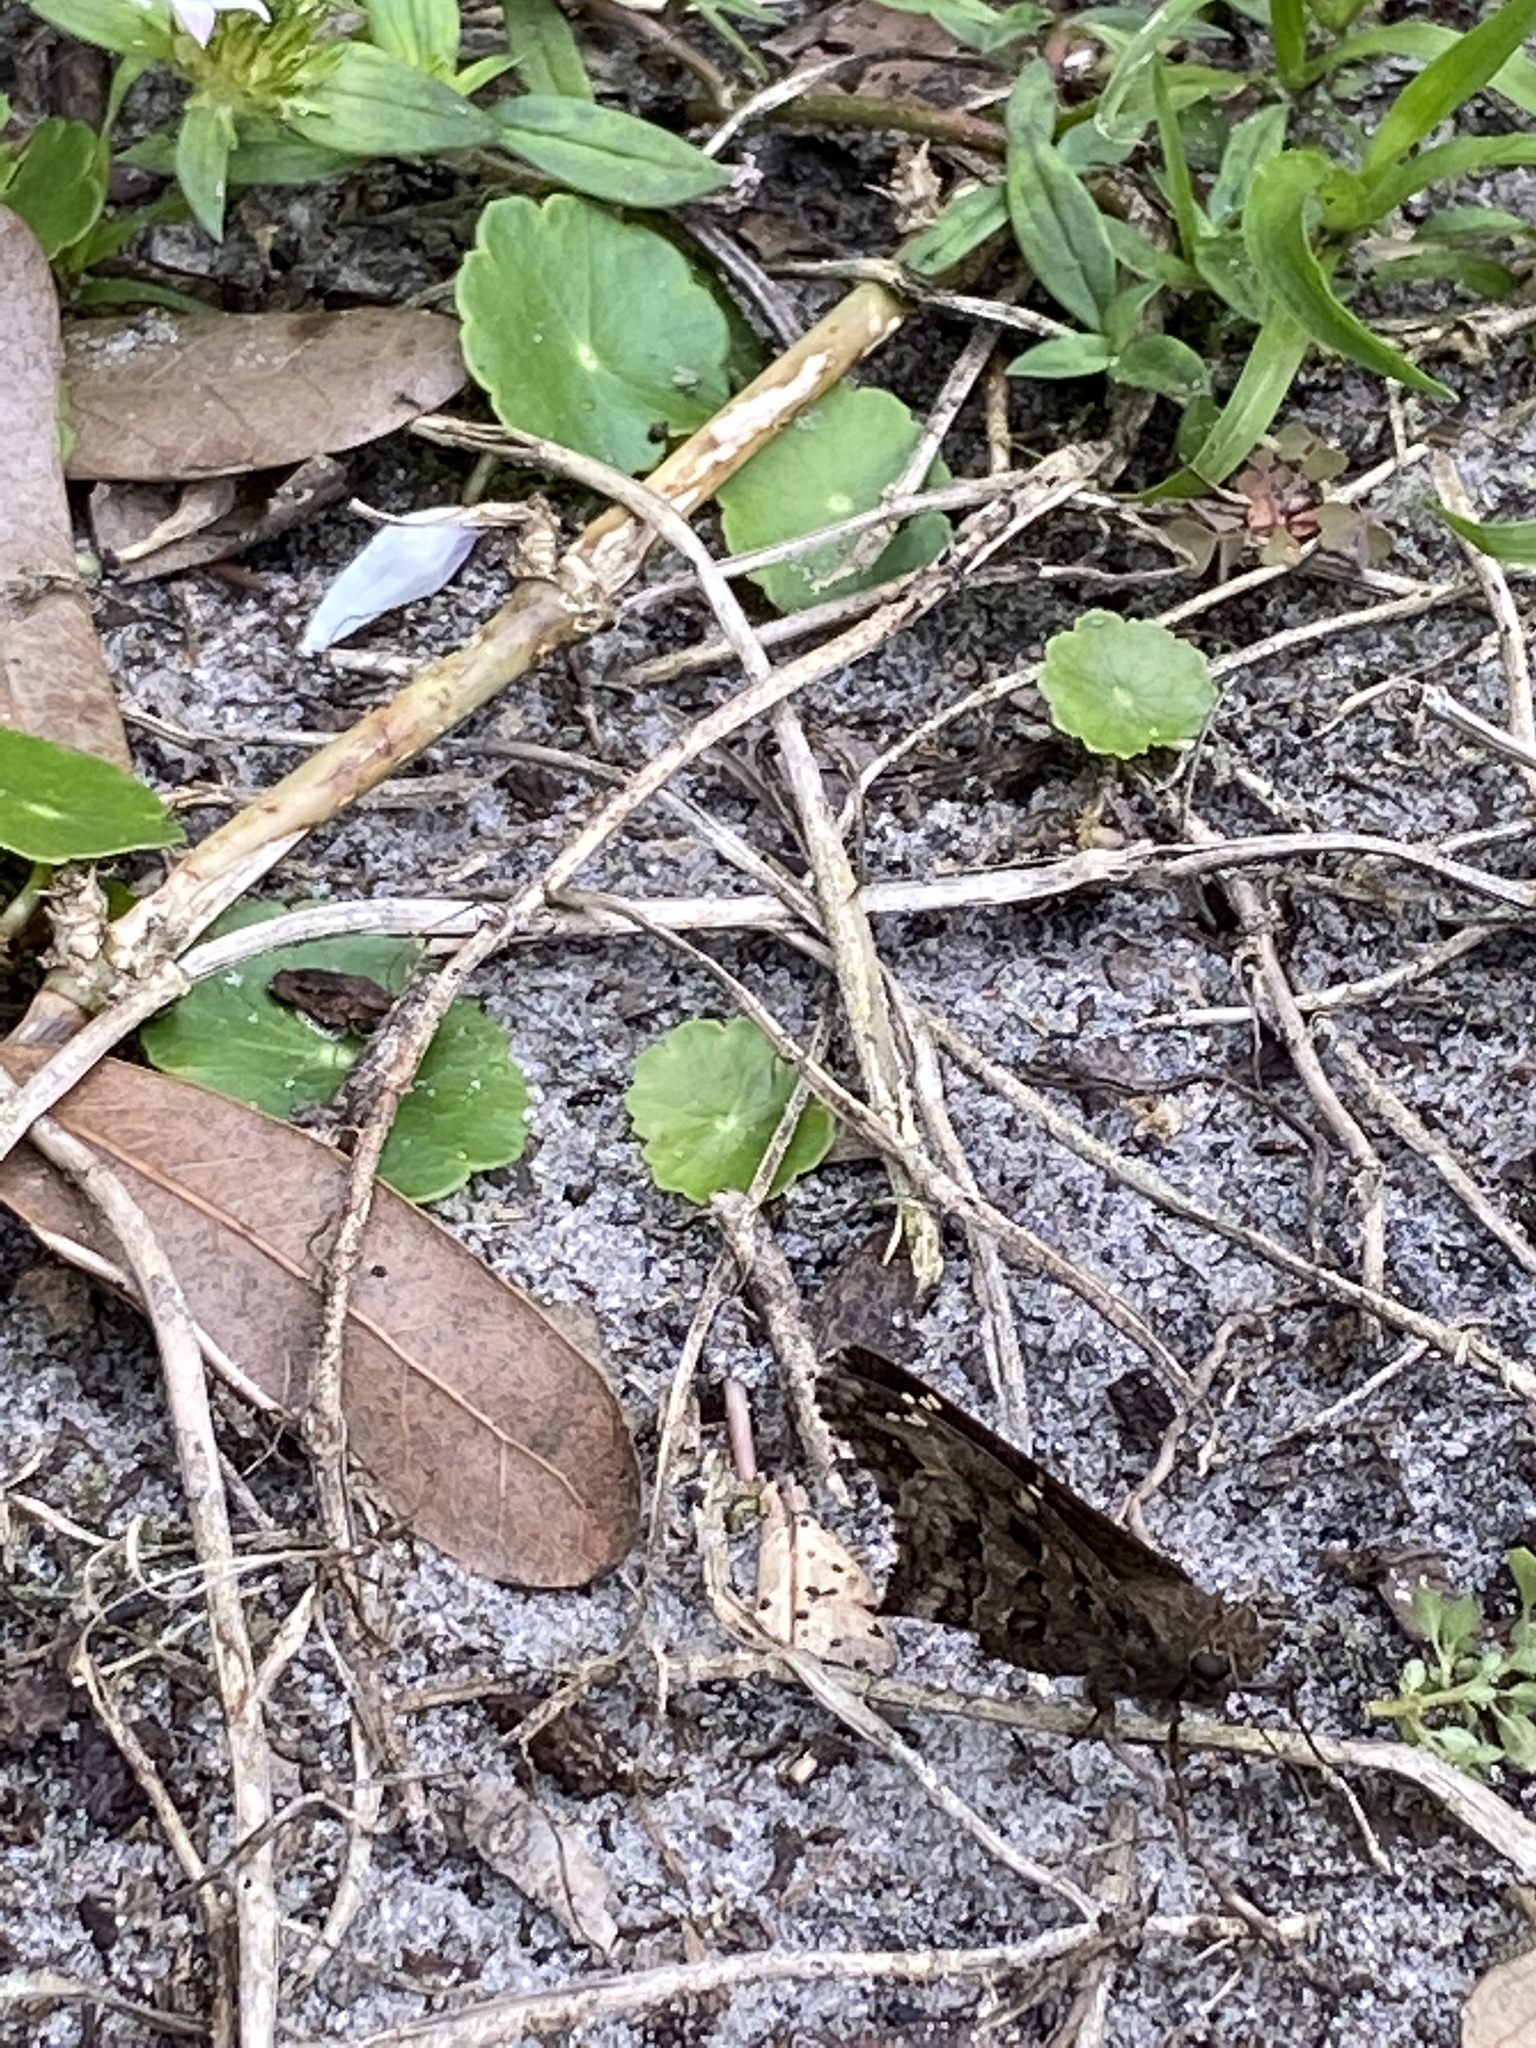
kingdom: Animalia
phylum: Arthropoda
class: Insecta
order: Lepidoptera
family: Hesperiidae
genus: Thorybes
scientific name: Thorybes
